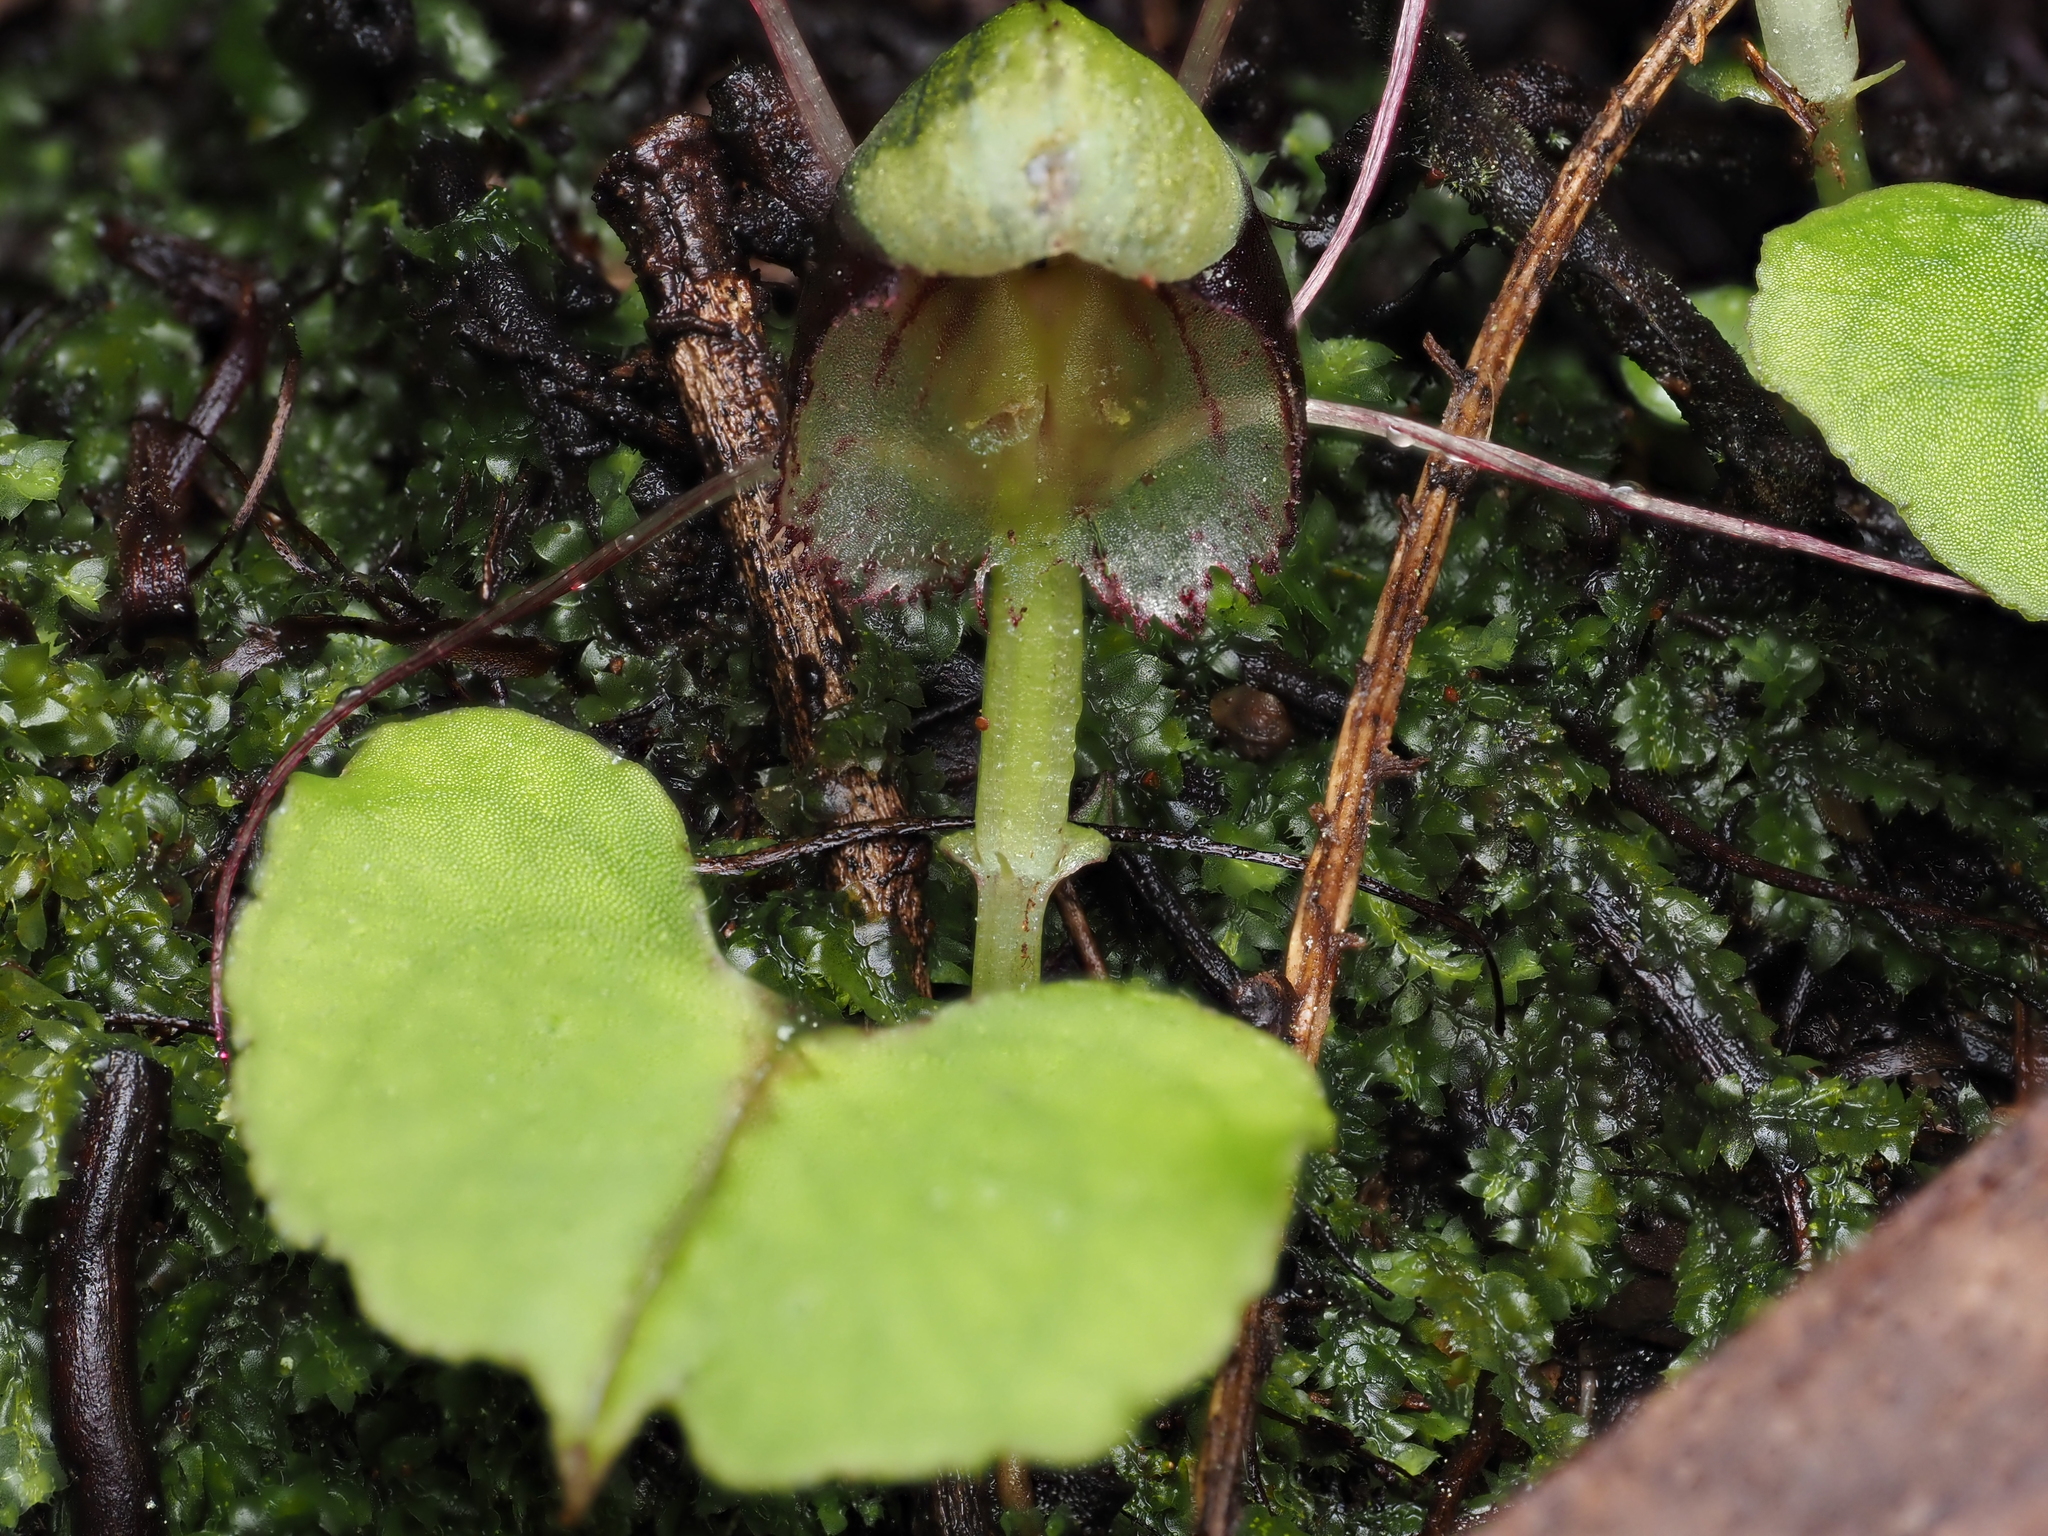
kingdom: Plantae
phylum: Tracheophyta
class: Liliopsida
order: Asparagales
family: Orchidaceae
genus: Corybas
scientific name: Corybas vitreus
